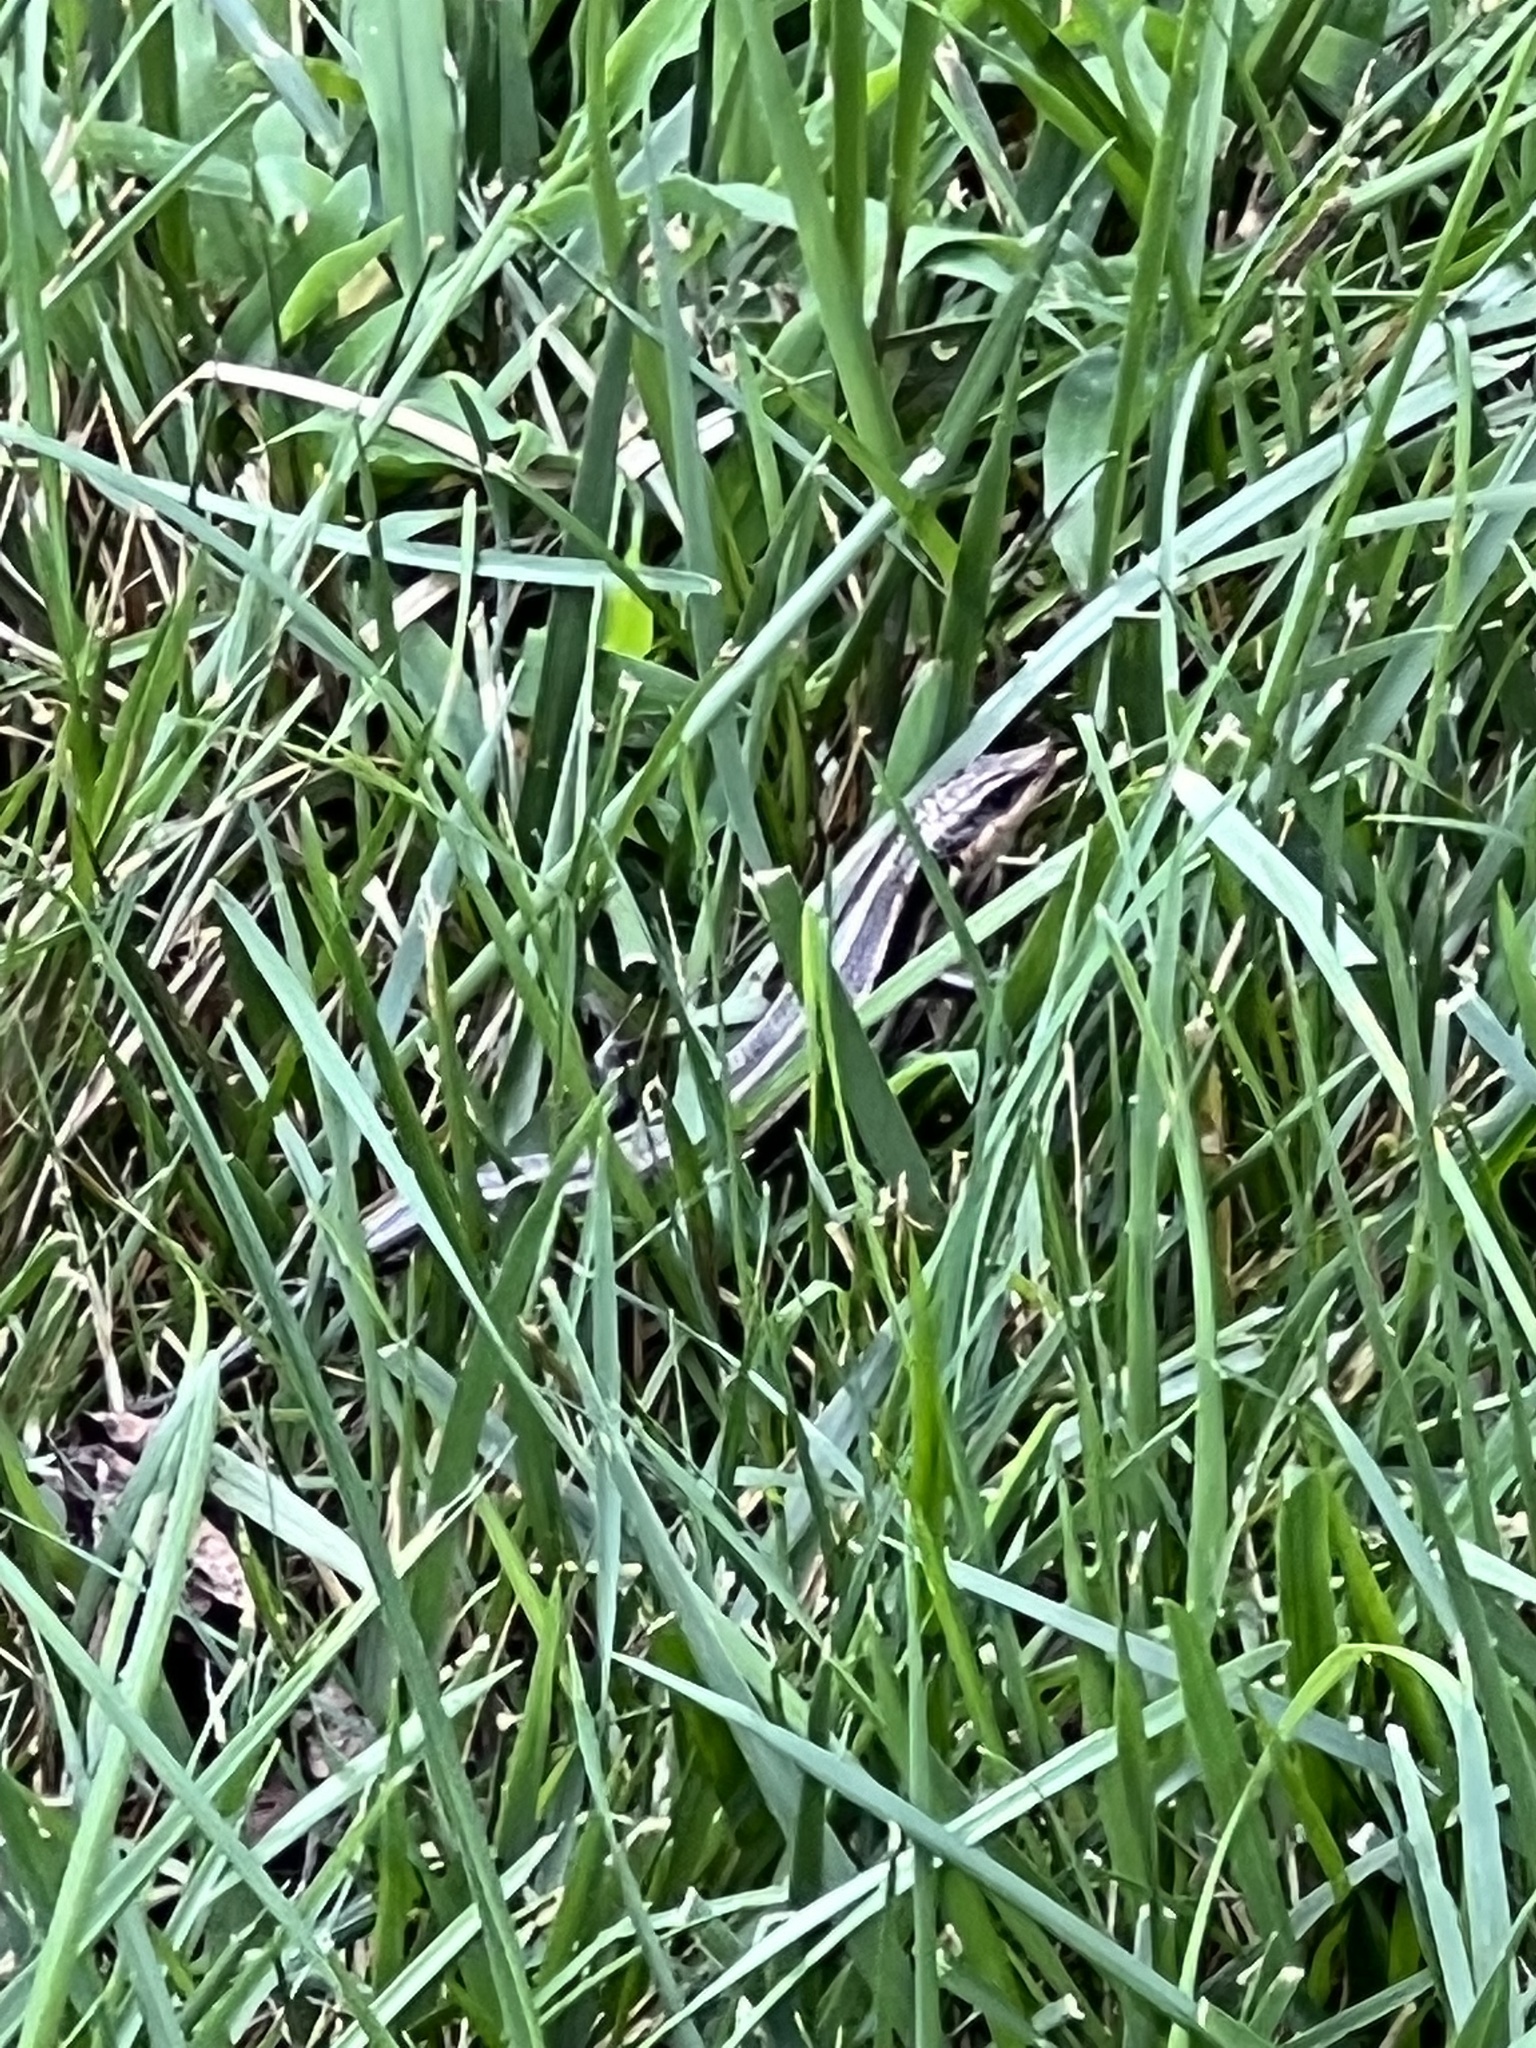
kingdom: Animalia
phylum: Chordata
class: Squamata
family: Scincidae
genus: Plestiodon
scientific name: Plestiodon fasciatus
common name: Five-lined skink
